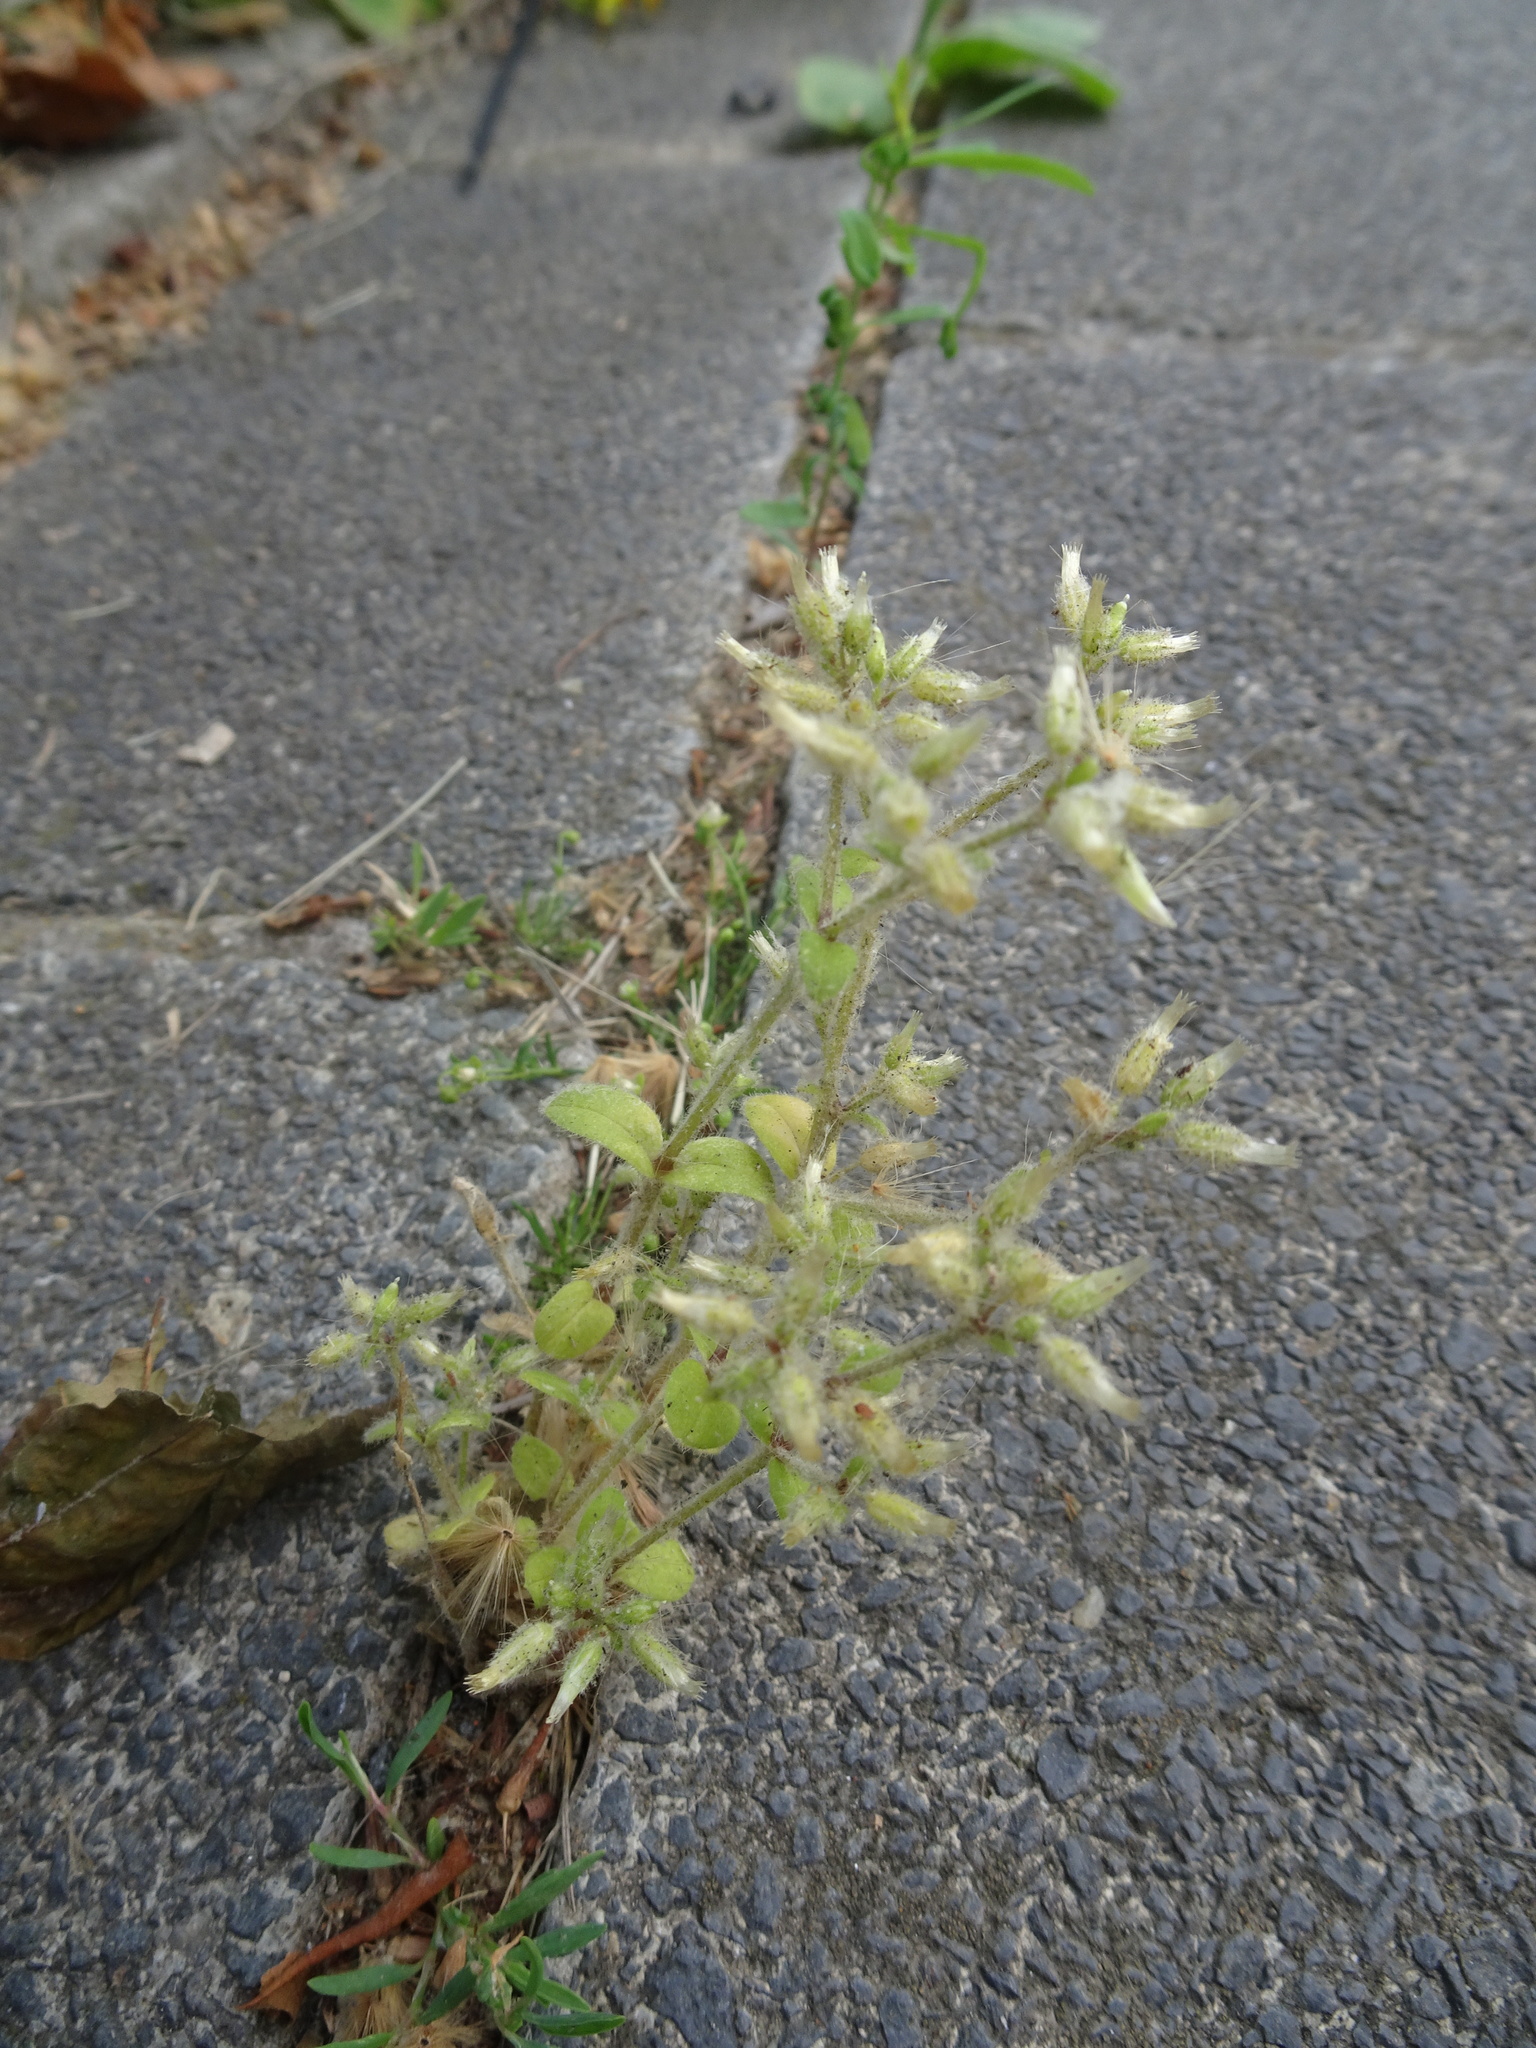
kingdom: Plantae
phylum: Tracheophyta
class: Magnoliopsida
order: Caryophyllales
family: Caryophyllaceae
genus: Cerastium
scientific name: Cerastium glomeratum
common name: Sticky chickweed
